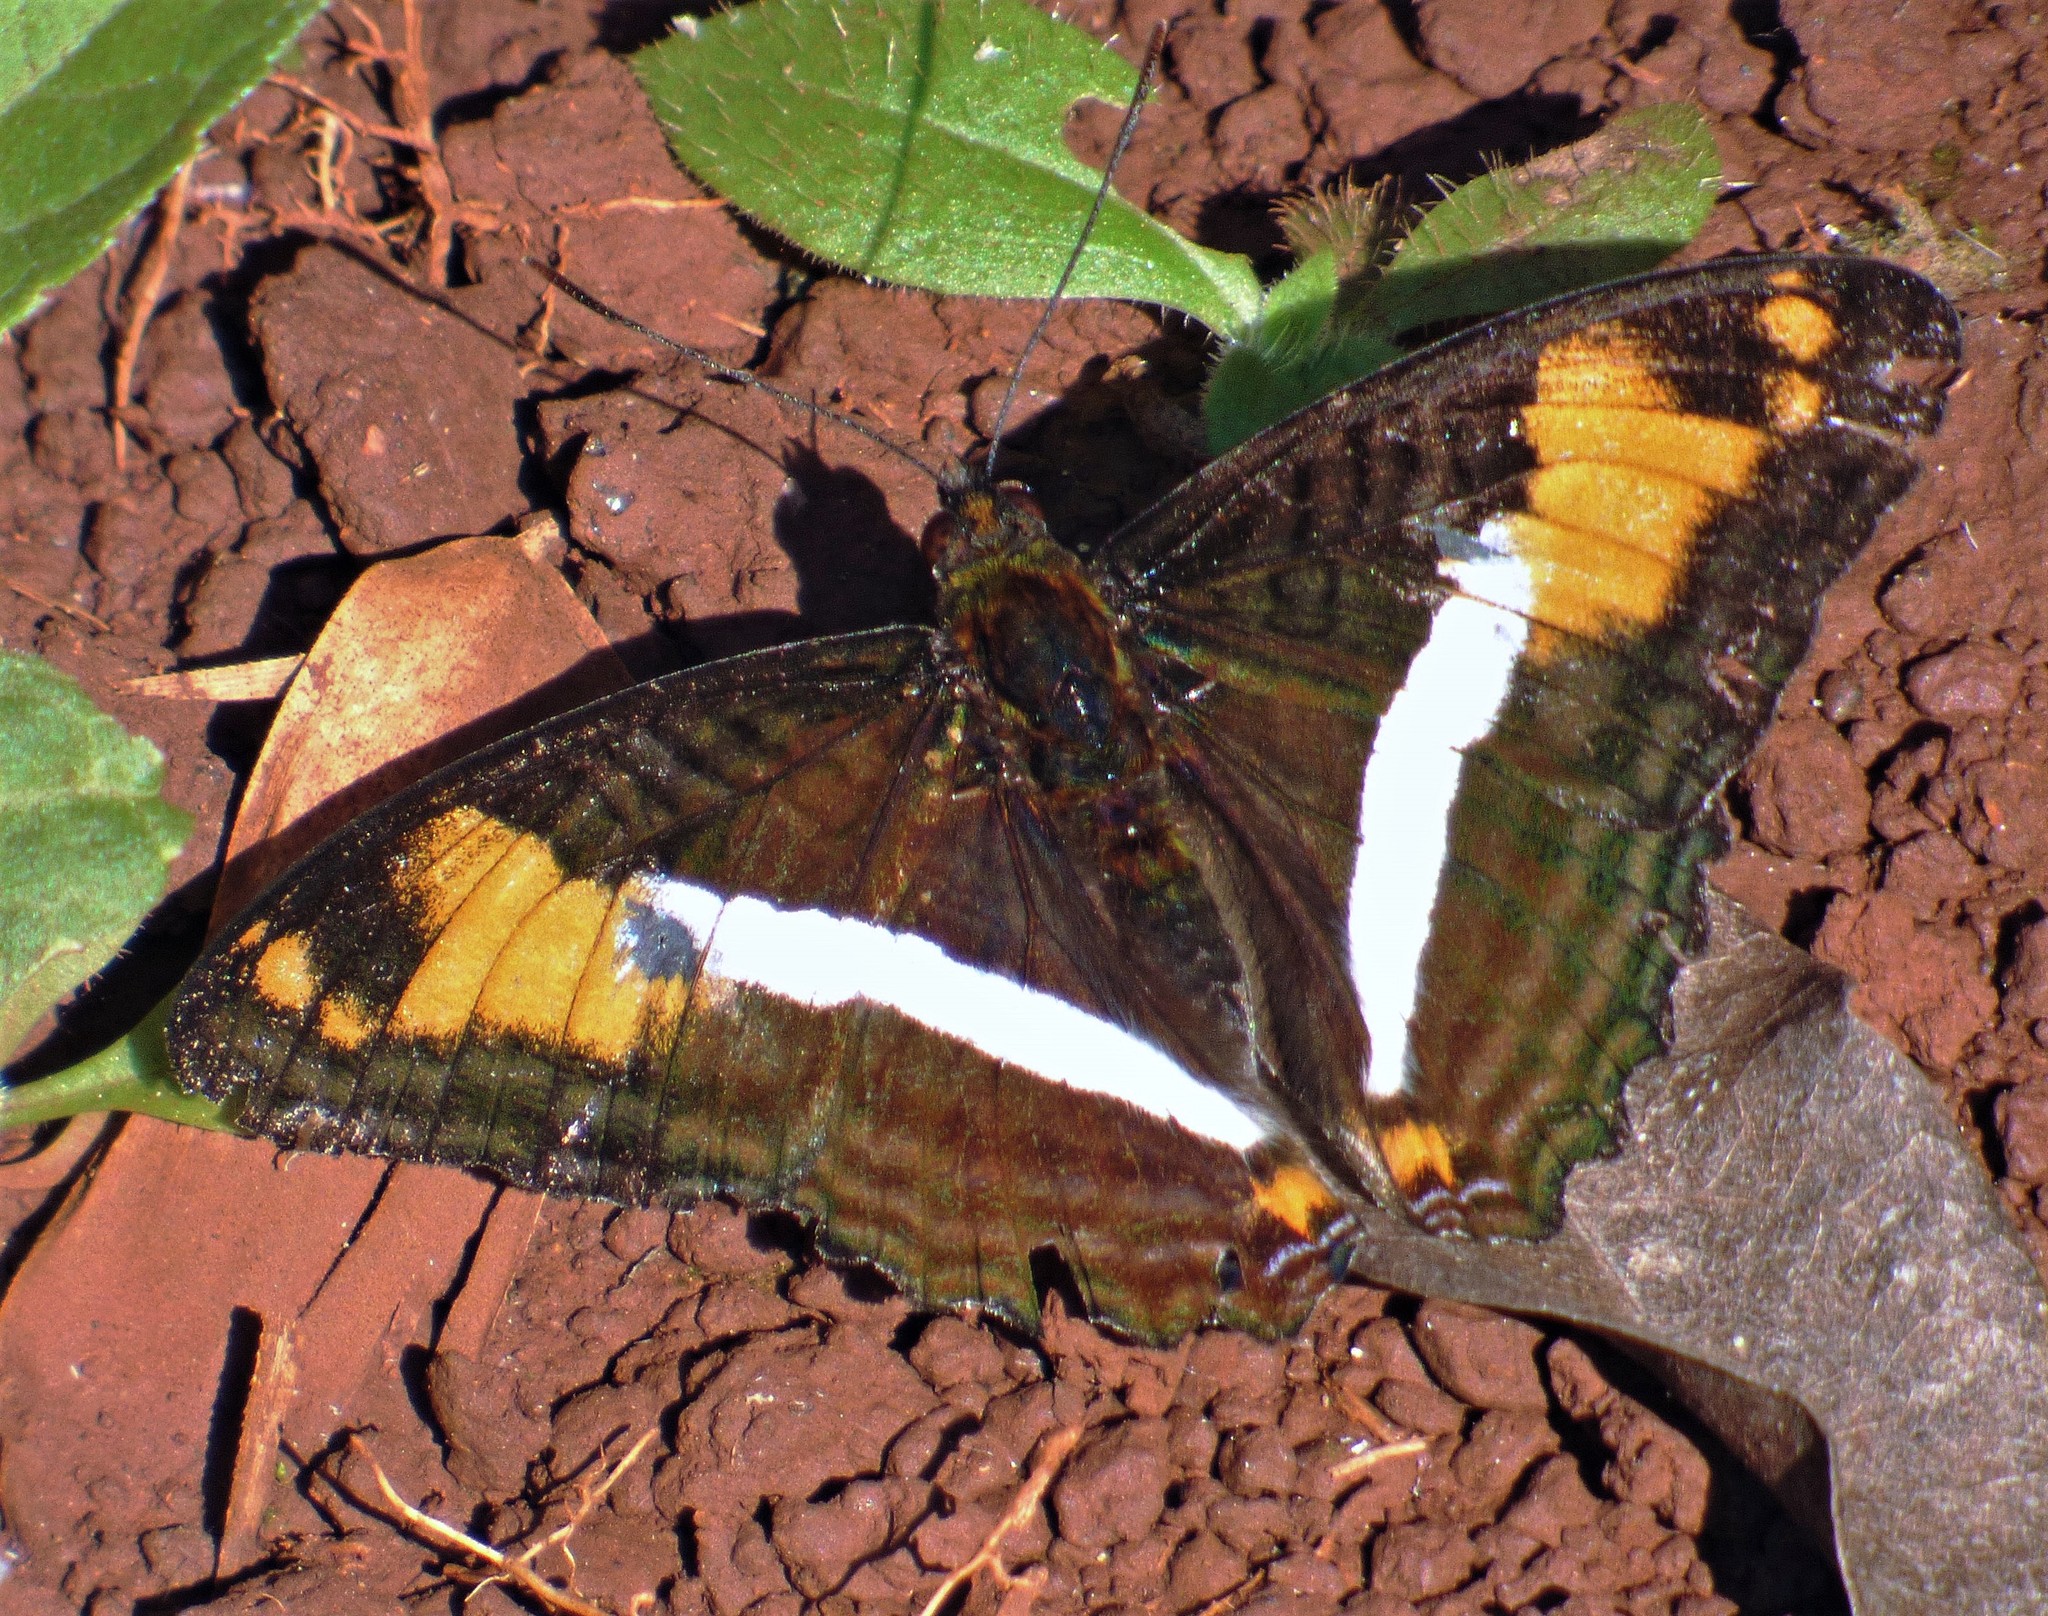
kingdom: Animalia
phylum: Arthropoda
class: Insecta
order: Lepidoptera
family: Nymphalidae
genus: Limenitis
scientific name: Limenitis malea
